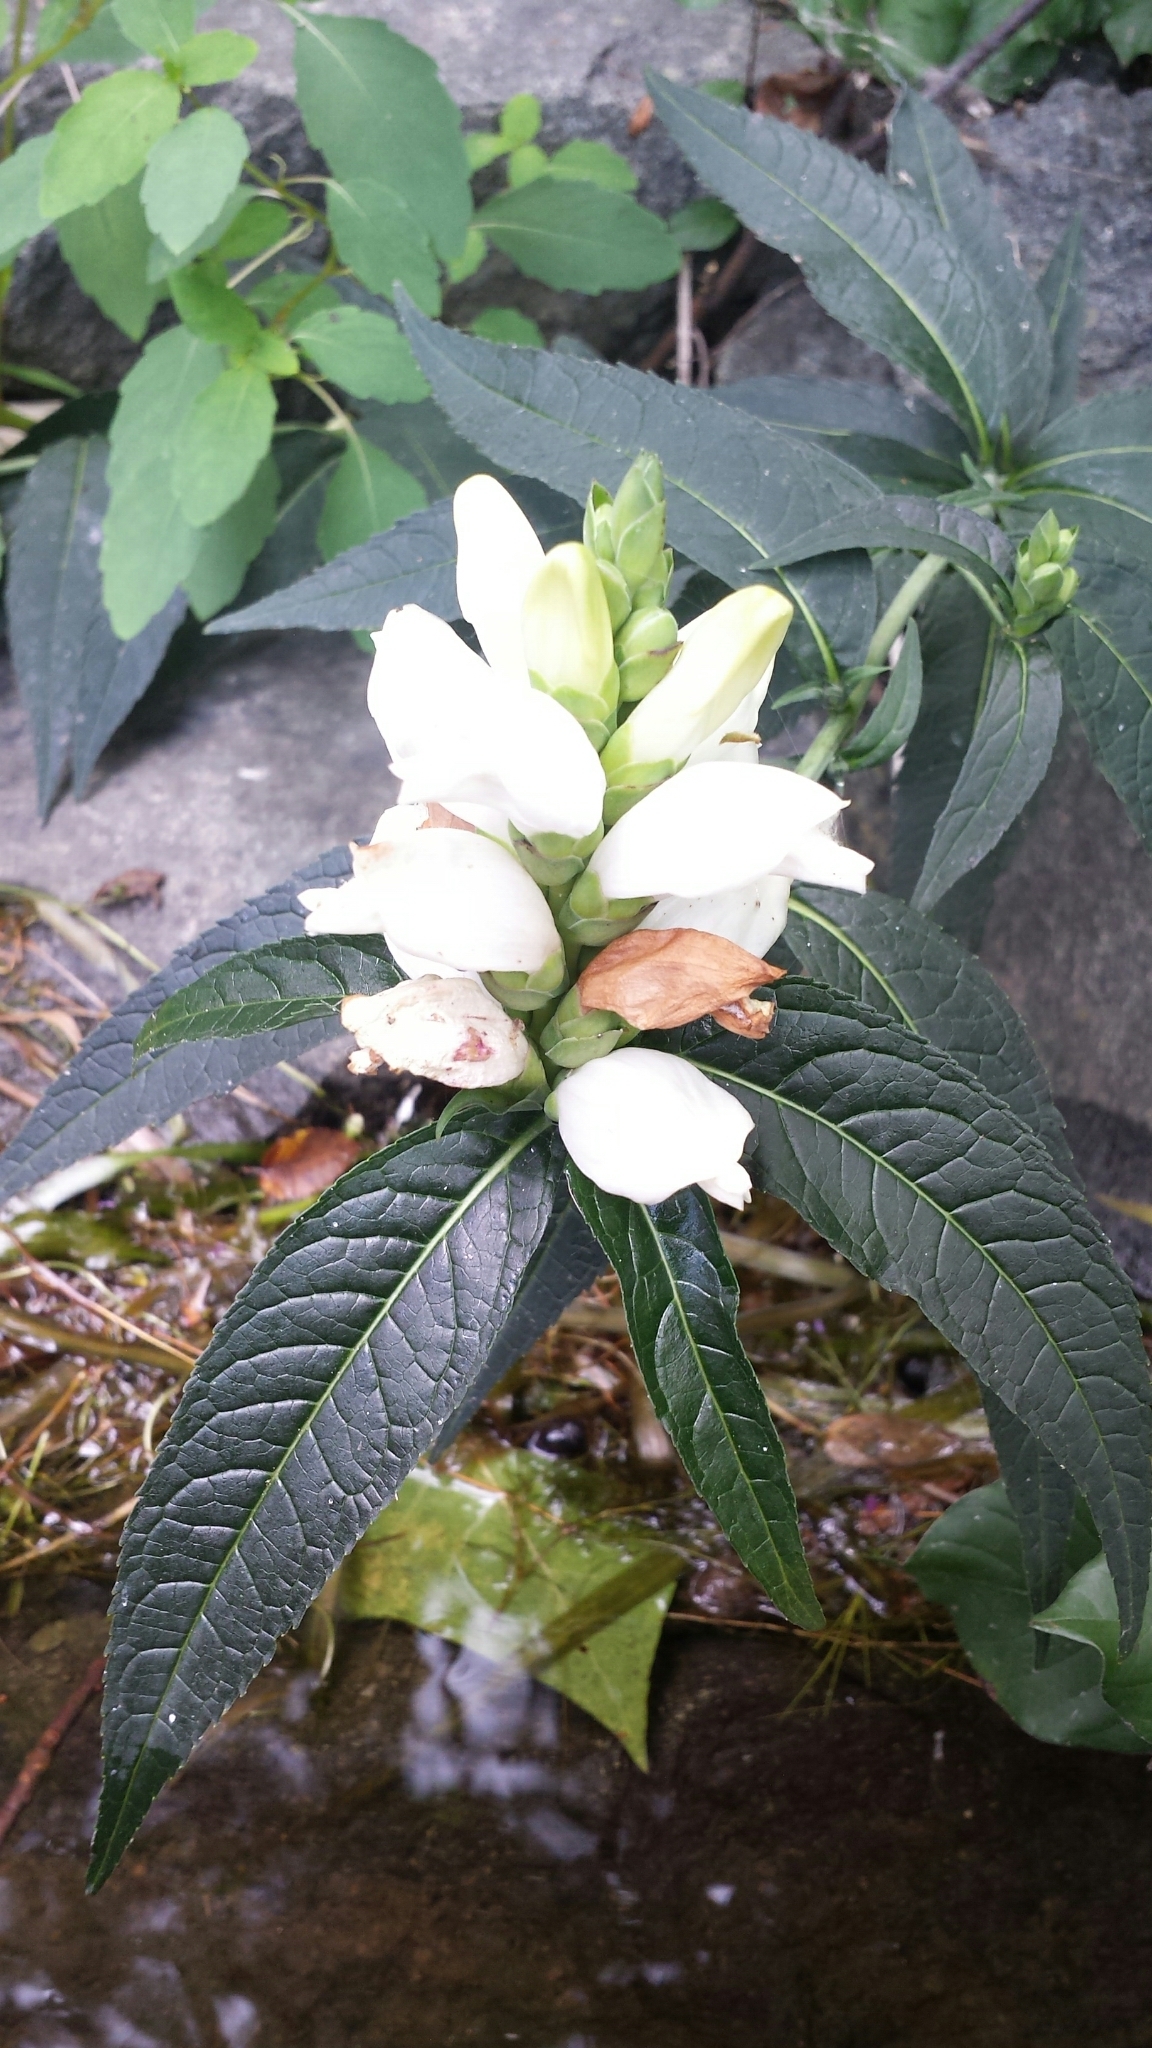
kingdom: Plantae
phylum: Tracheophyta
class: Magnoliopsida
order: Lamiales
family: Plantaginaceae
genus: Chelone
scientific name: Chelone glabra
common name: Snakehead
